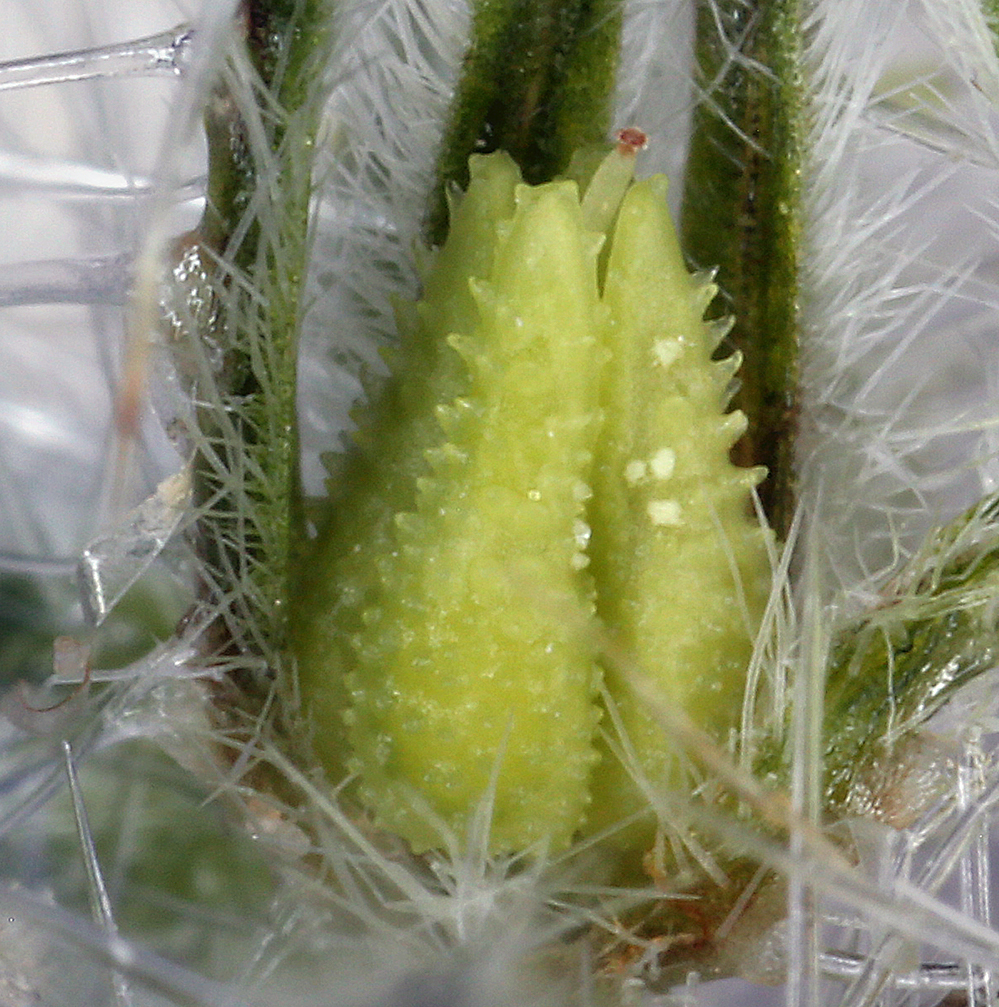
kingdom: Plantae
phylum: Tracheophyta
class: Magnoliopsida
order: Boraginales
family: Boraginaceae
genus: Cryptantha
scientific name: Cryptantha nevadensis
